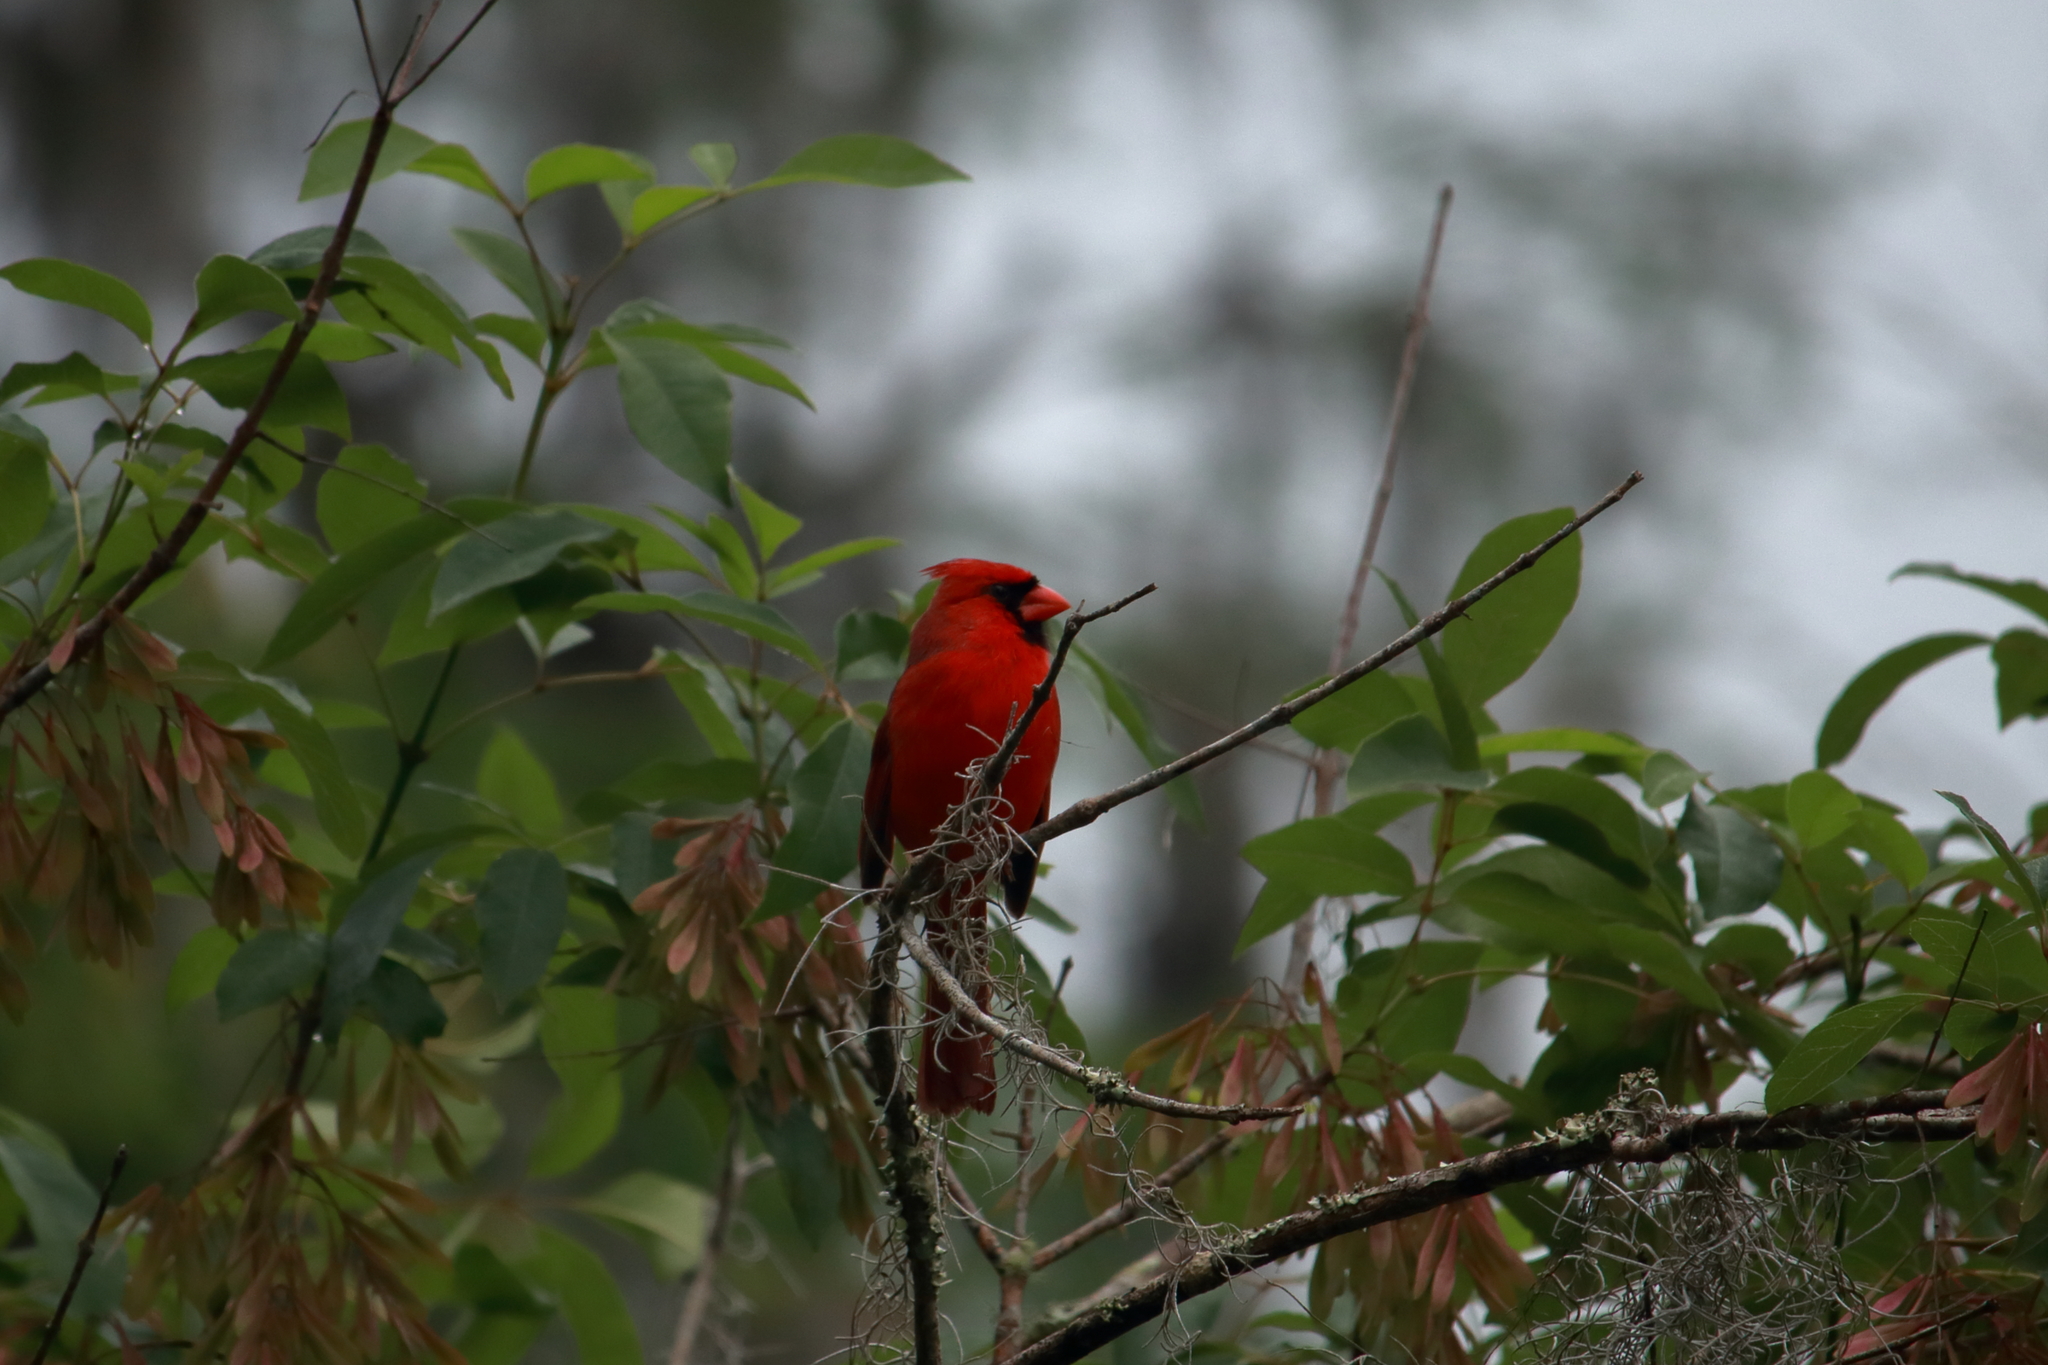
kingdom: Animalia
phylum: Chordata
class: Aves
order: Passeriformes
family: Cardinalidae
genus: Cardinalis
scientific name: Cardinalis cardinalis
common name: Northern cardinal
